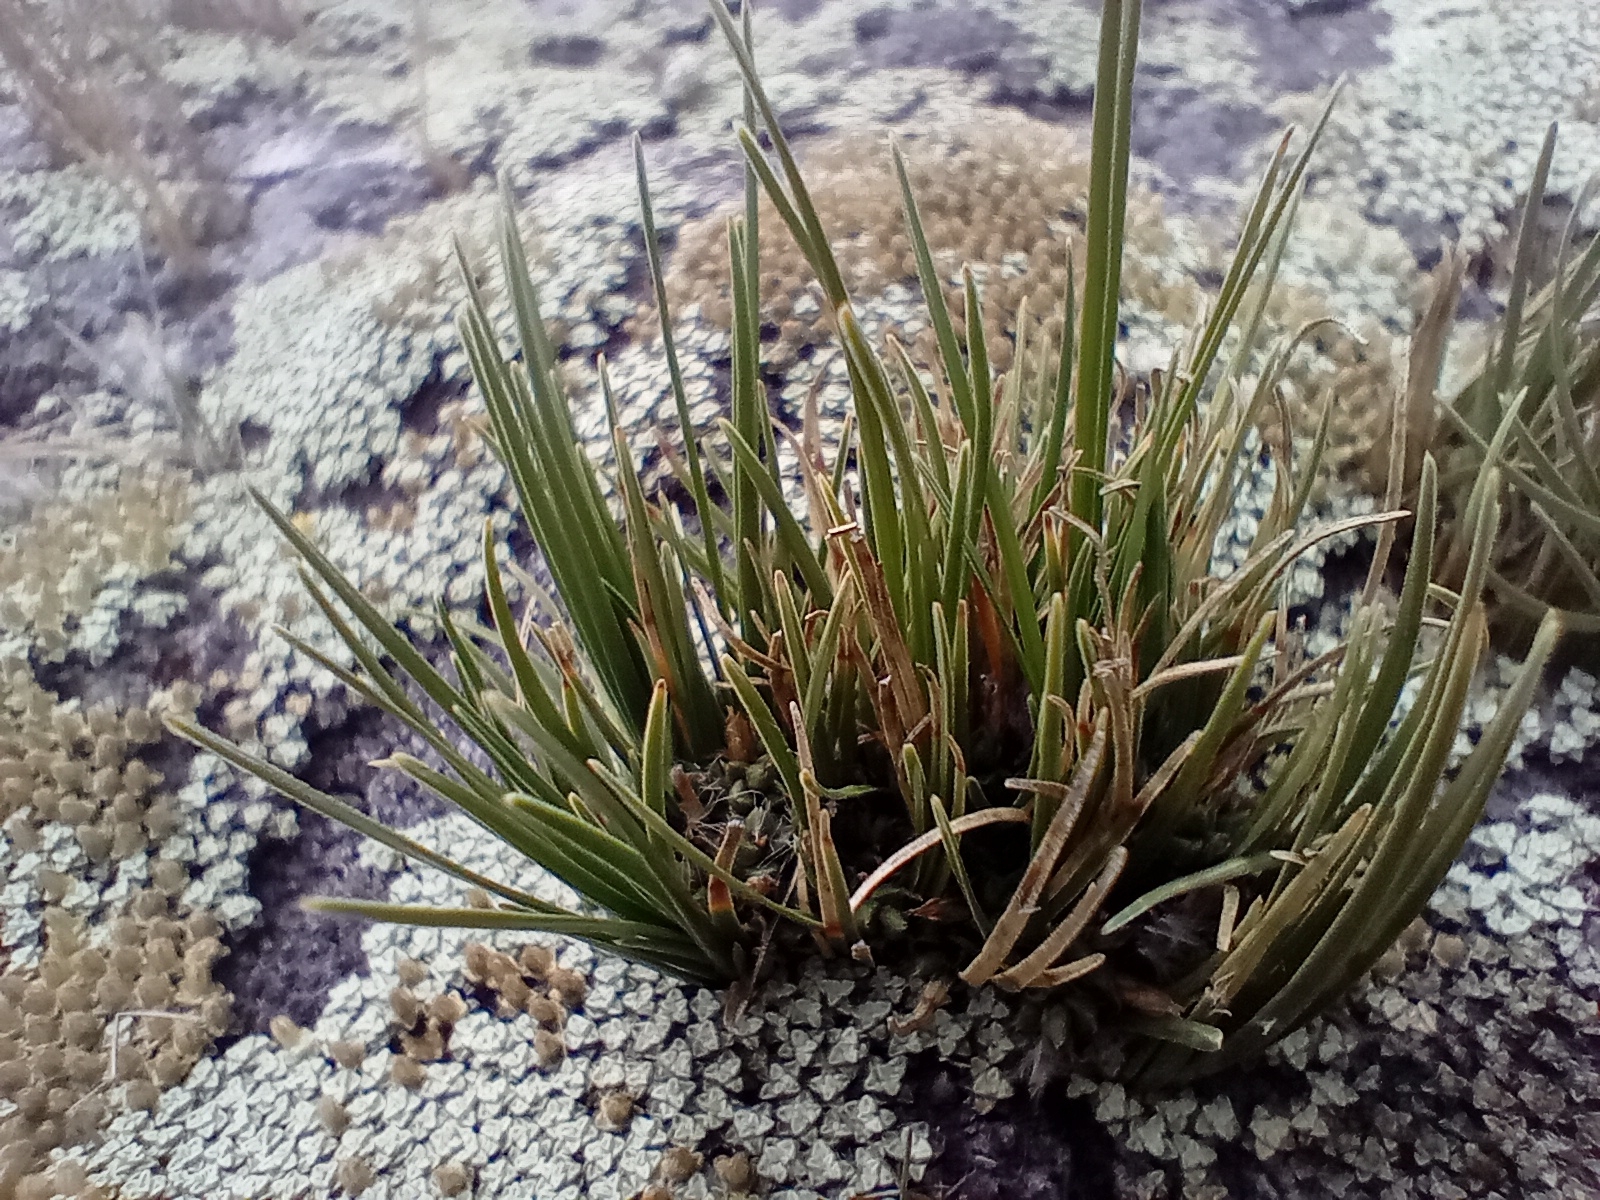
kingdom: Plantae
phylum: Tracheophyta
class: Liliopsida
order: Poales
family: Cyperaceae
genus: Carex
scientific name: Carex decurtata
